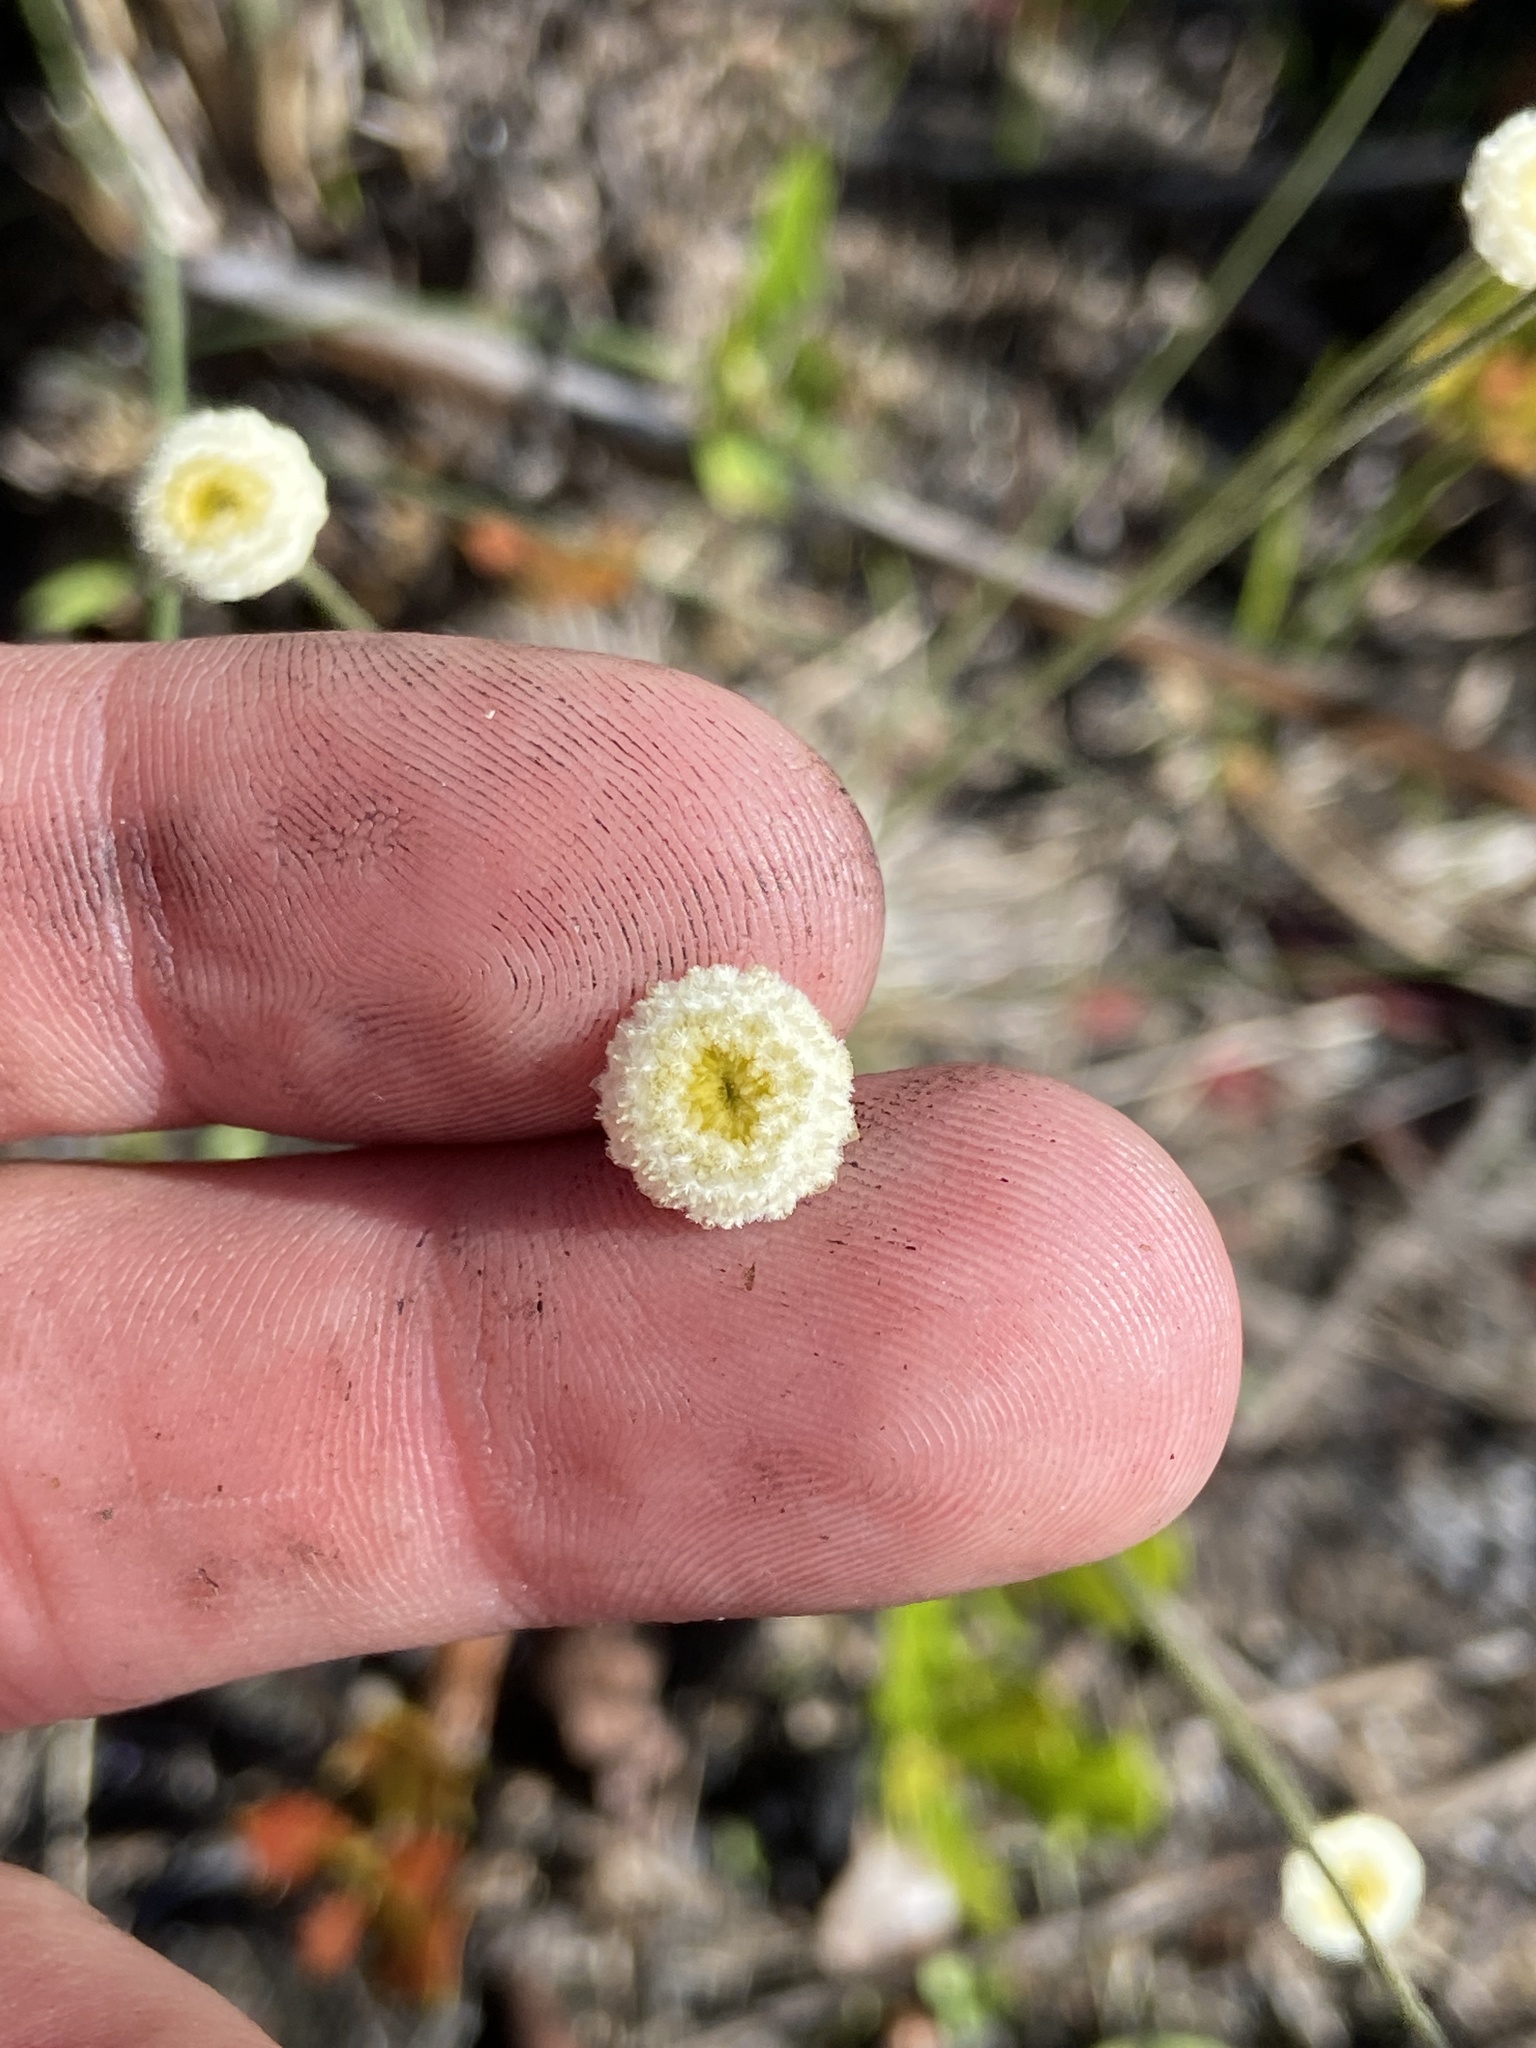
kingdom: Plantae
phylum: Tracheophyta
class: Liliopsida
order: Poales
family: Eriocaulaceae
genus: Syngonanthus
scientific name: Syngonanthus flavidulus
